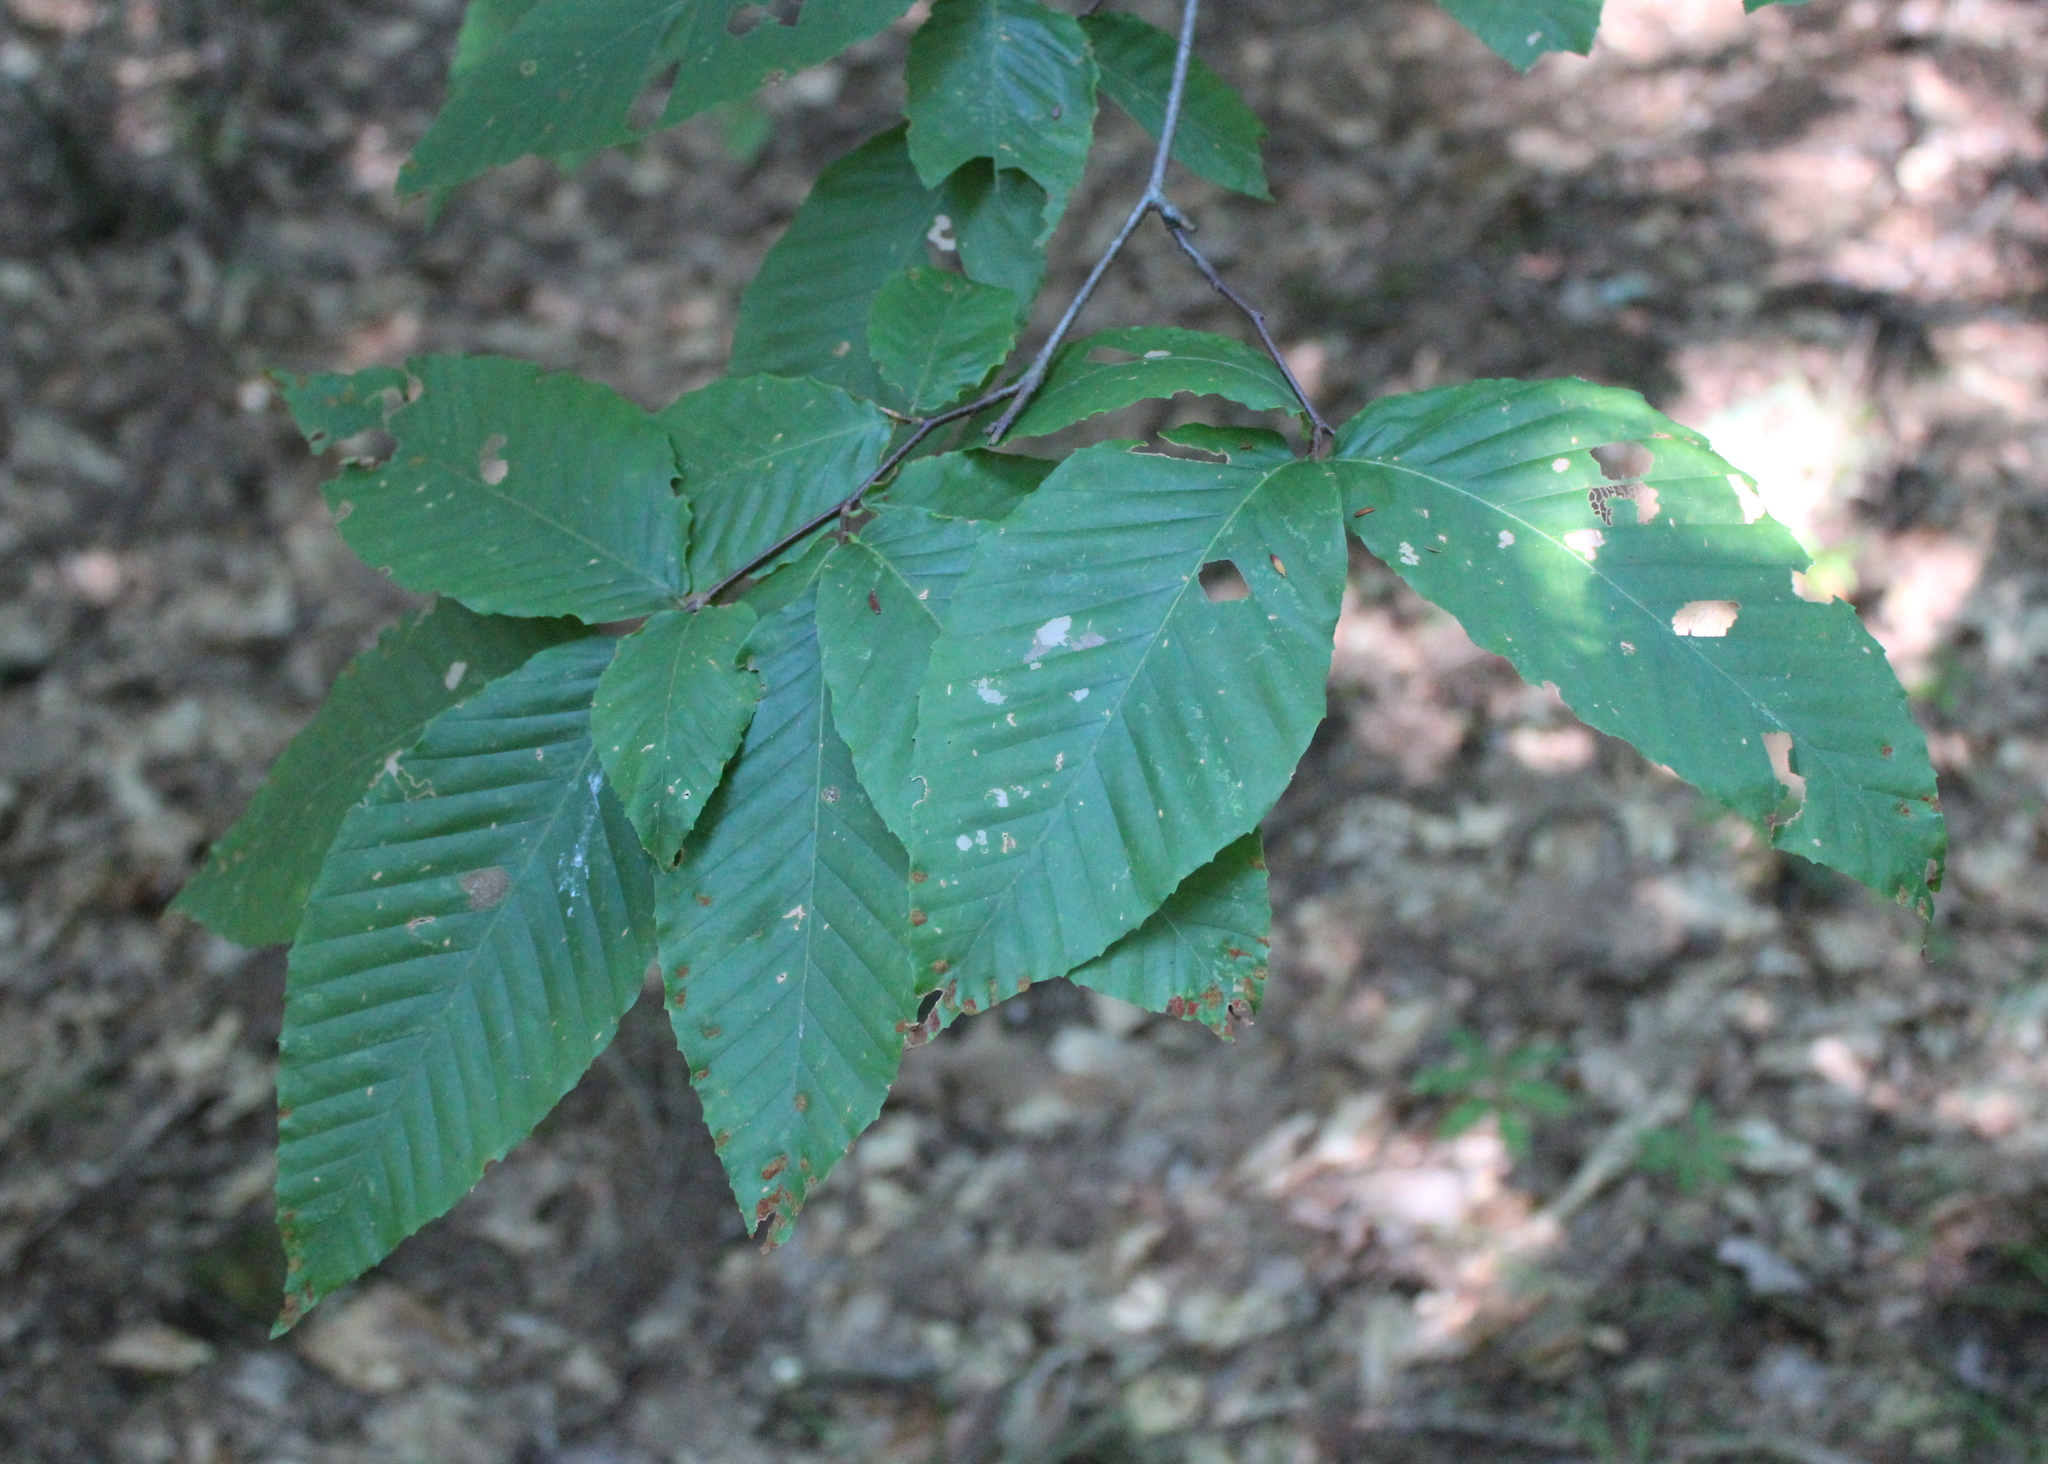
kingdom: Plantae
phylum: Tracheophyta
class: Magnoliopsida
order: Fagales
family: Fagaceae
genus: Fagus
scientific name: Fagus grandifolia
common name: American beech
